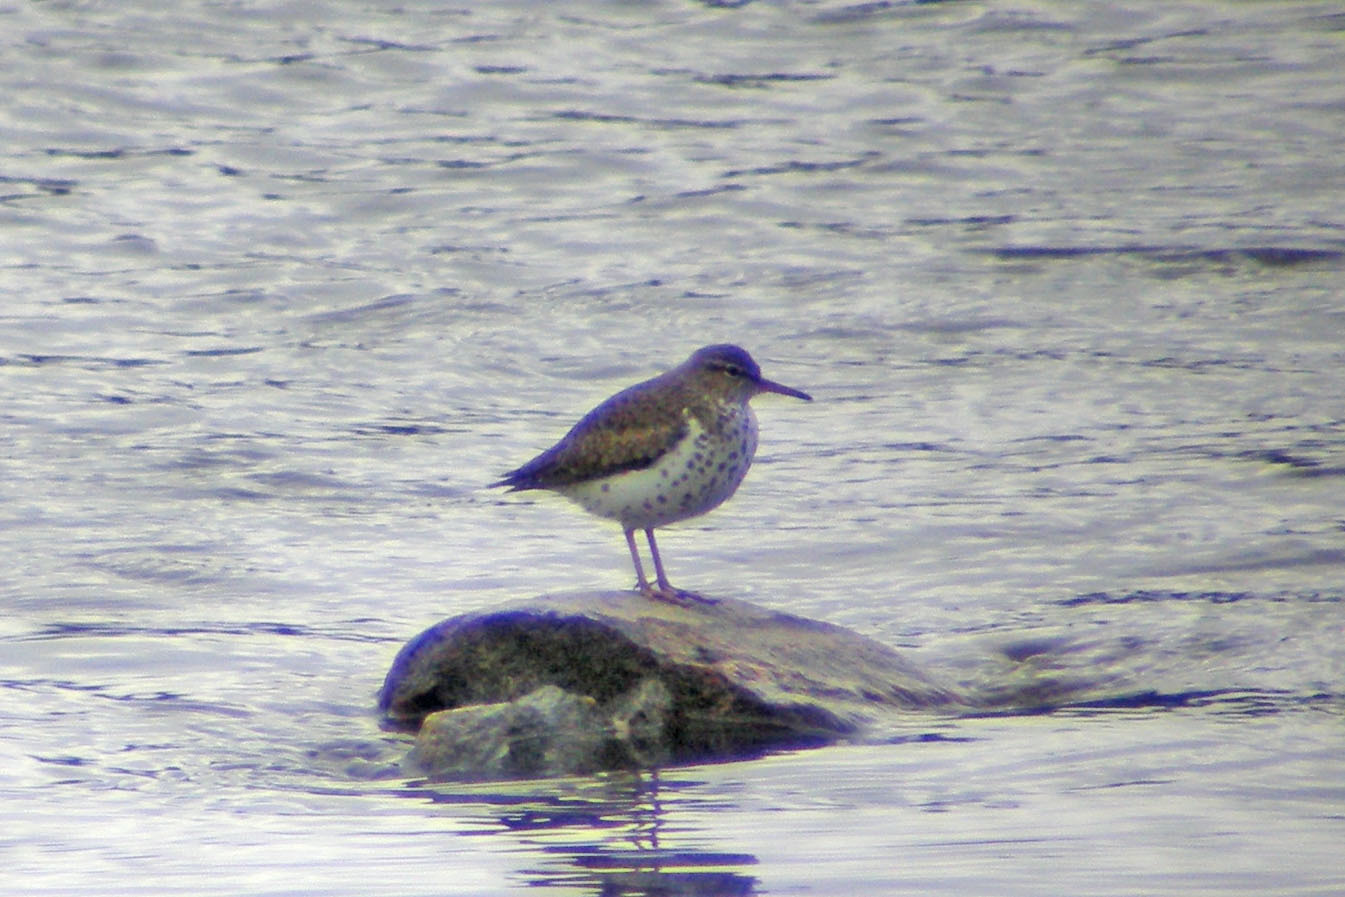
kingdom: Animalia
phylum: Chordata
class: Aves
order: Charadriiformes
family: Scolopacidae
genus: Actitis
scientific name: Actitis macularius
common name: Spotted sandpiper
